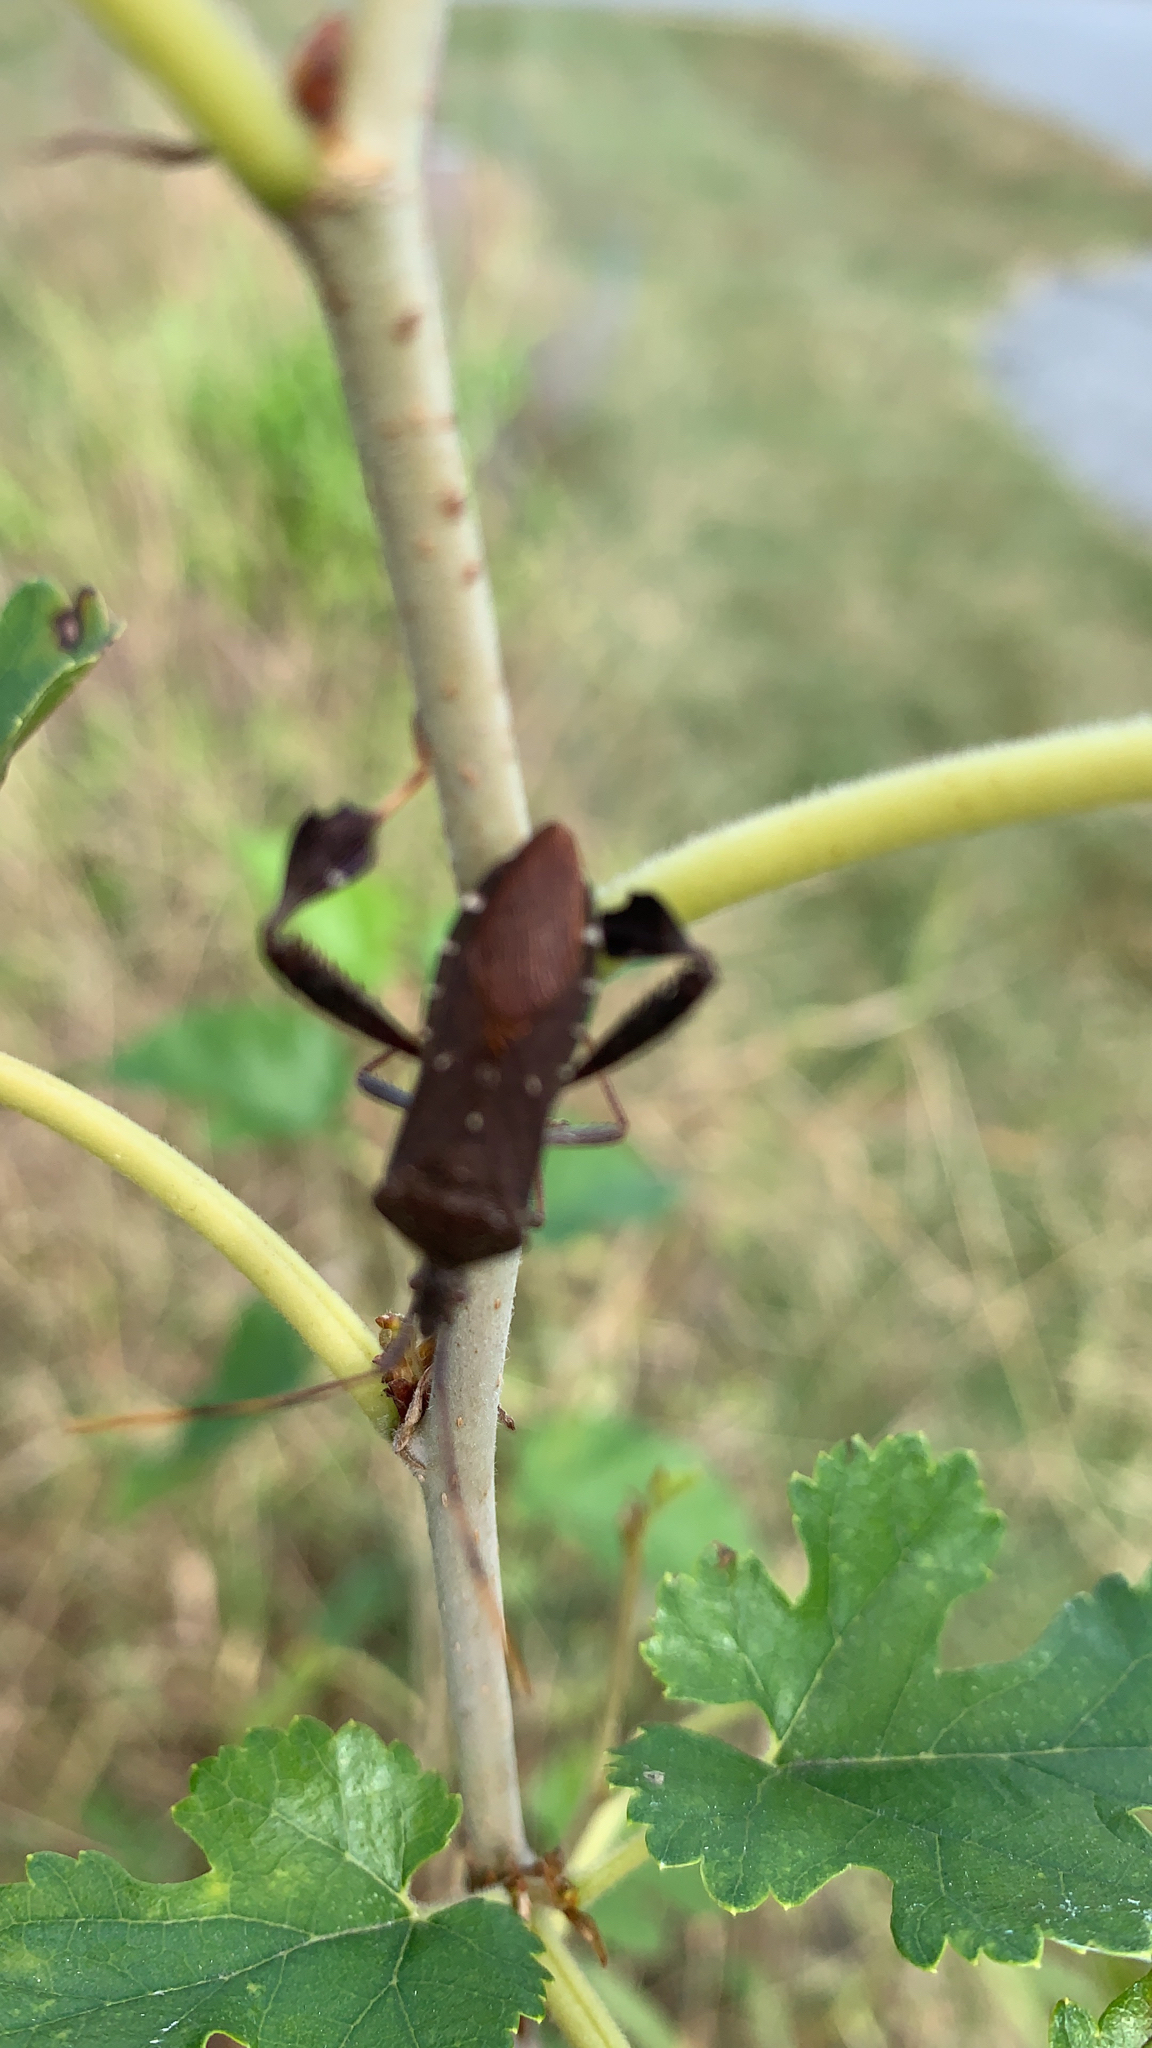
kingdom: Animalia
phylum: Arthropoda
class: Insecta
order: Hemiptera
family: Coreidae
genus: Leptoglossus
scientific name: Leptoglossus oppositus
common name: Northern leaf-footed bug
